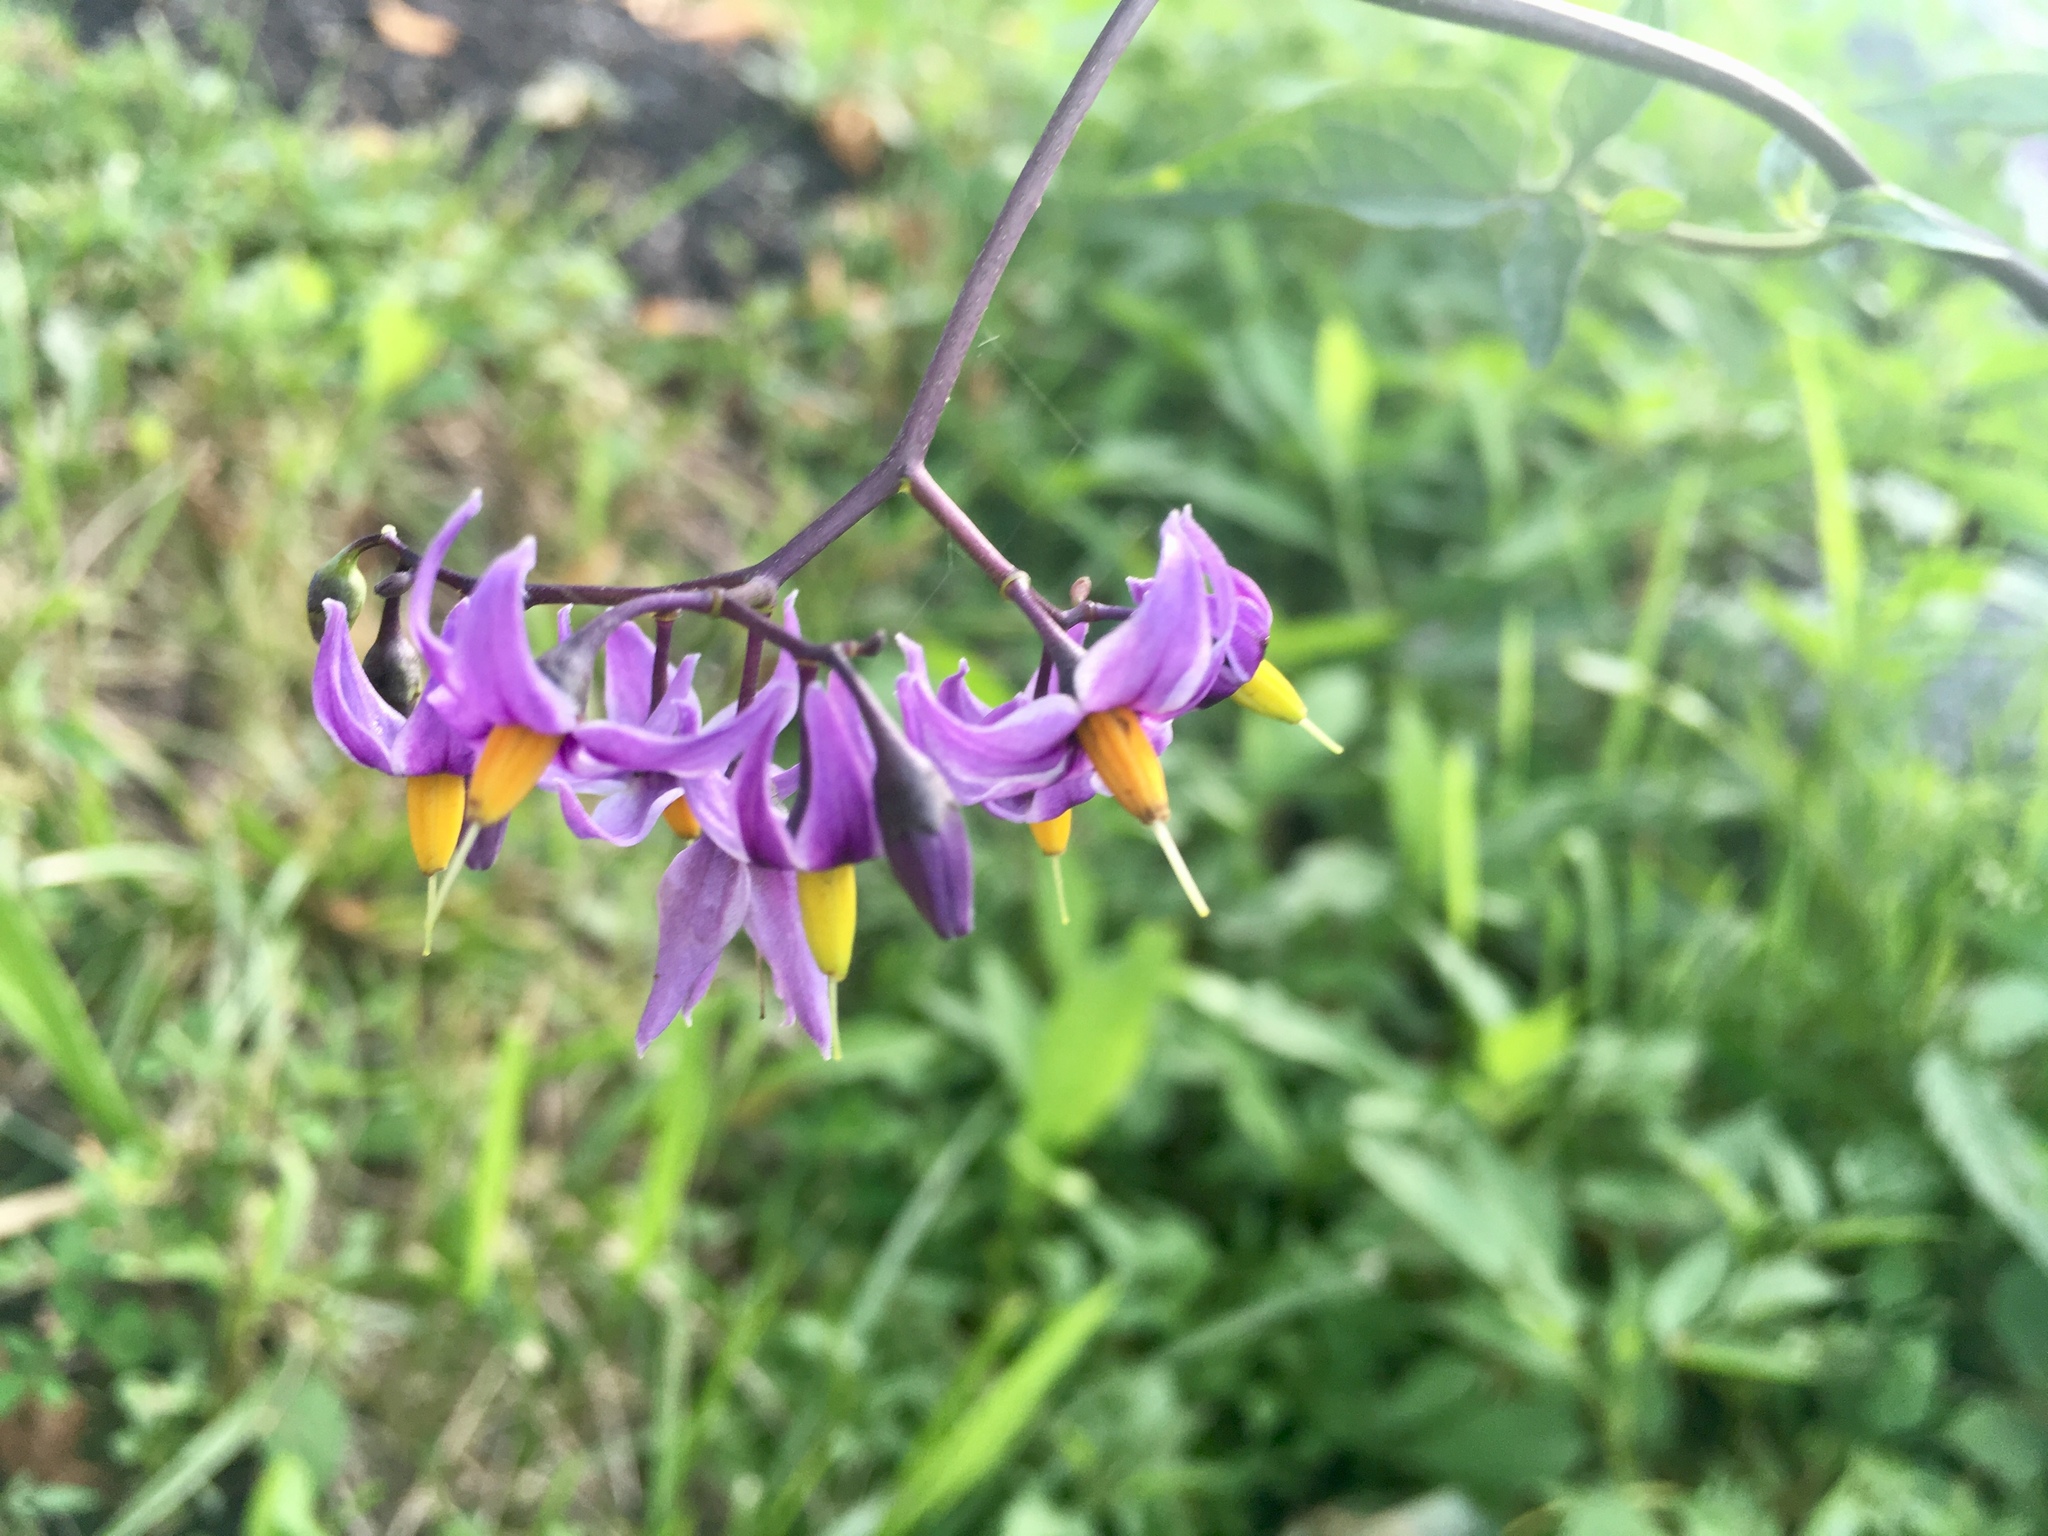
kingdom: Plantae
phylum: Tracheophyta
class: Magnoliopsida
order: Solanales
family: Solanaceae
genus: Solanum
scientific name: Solanum dulcamara
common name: Climbing nightshade
